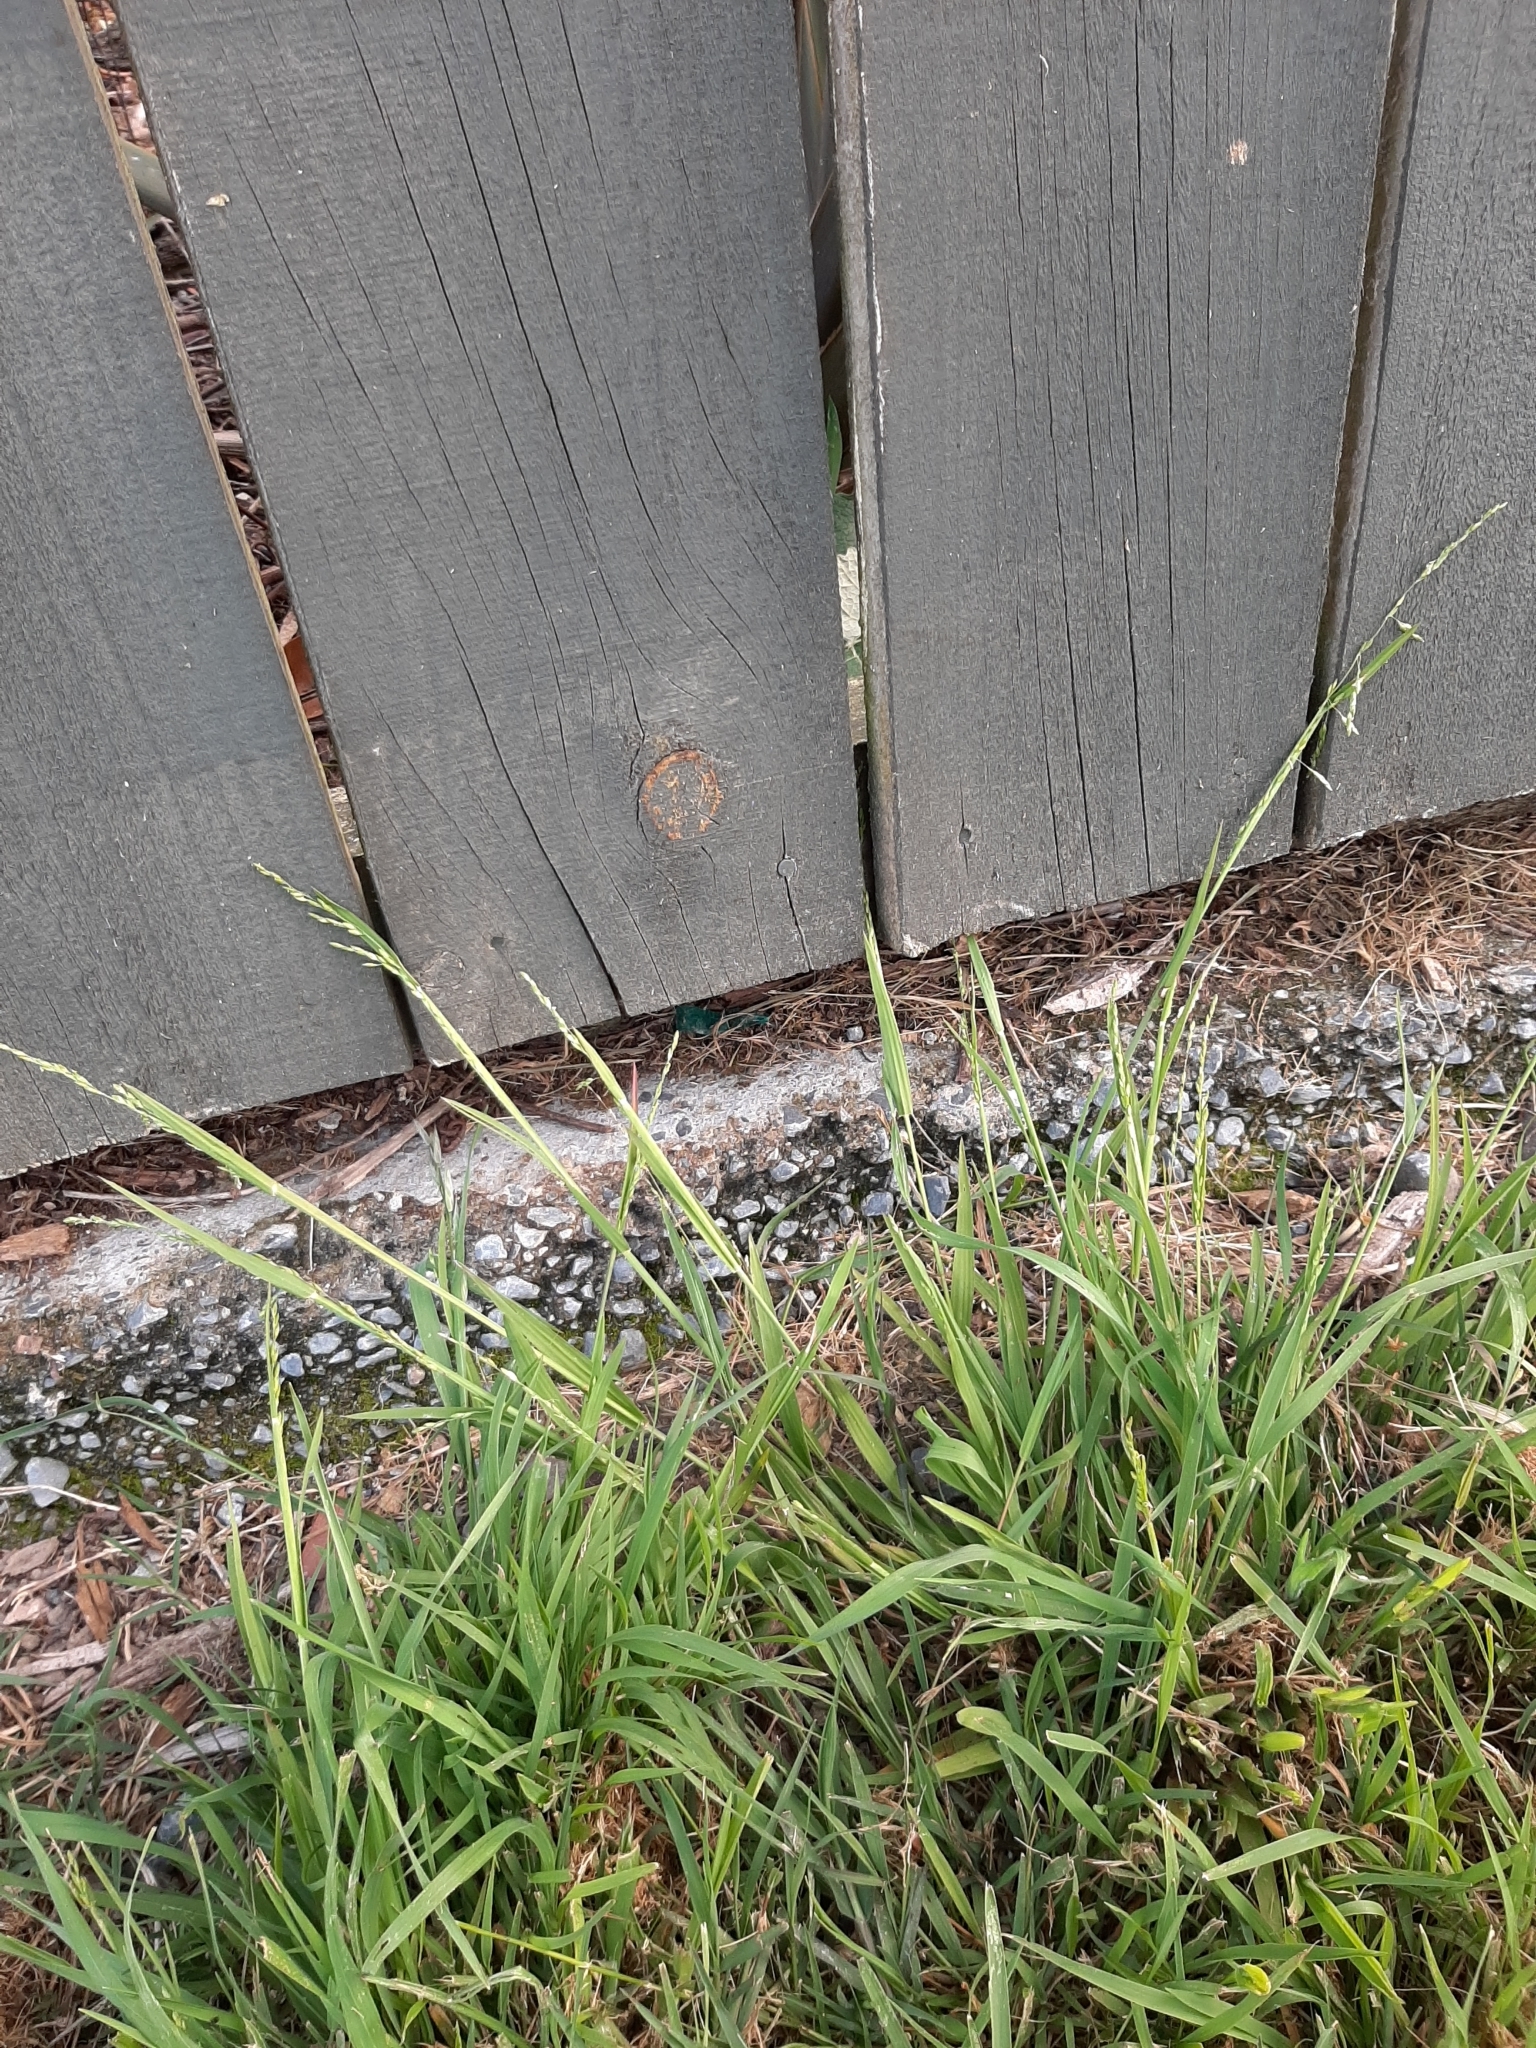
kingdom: Plantae
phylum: Tracheophyta
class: Liliopsida
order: Poales
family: Poaceae
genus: Ehrharta
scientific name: Ehrharta erecta
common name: Panic veldtgrass
